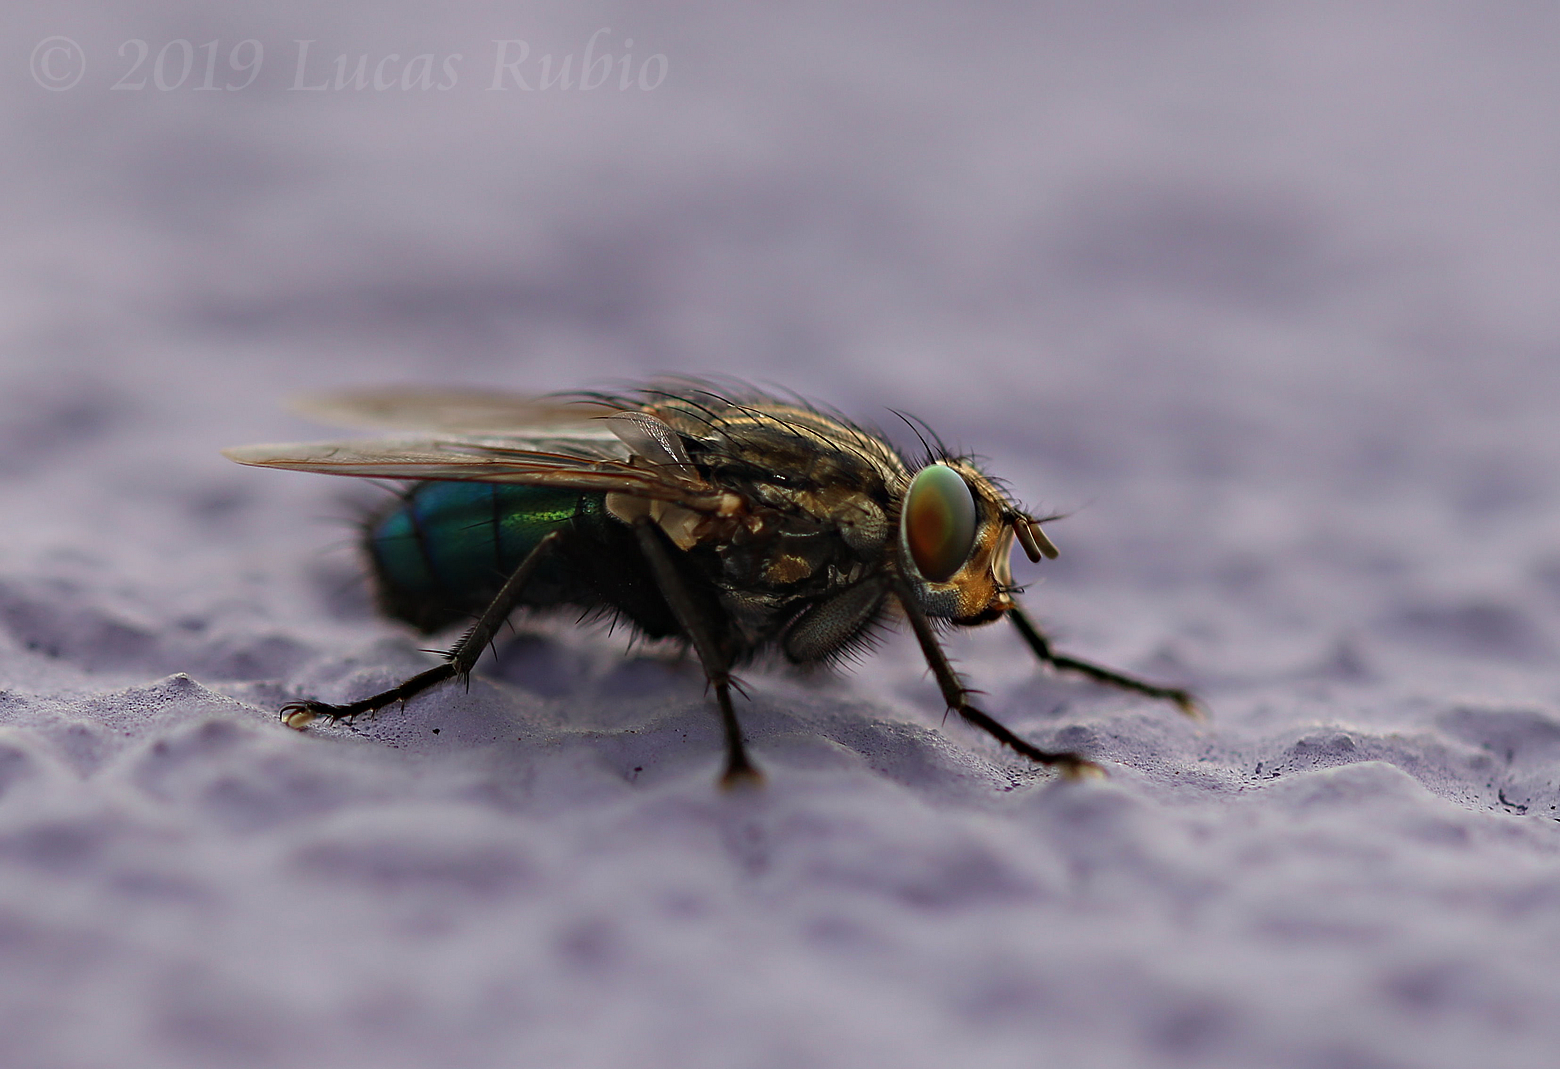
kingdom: Animalia
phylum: Arthropoda
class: Insecta
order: Diptera
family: Calliphoridae
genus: Sarconesia
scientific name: Sarconesia chlorogaster
